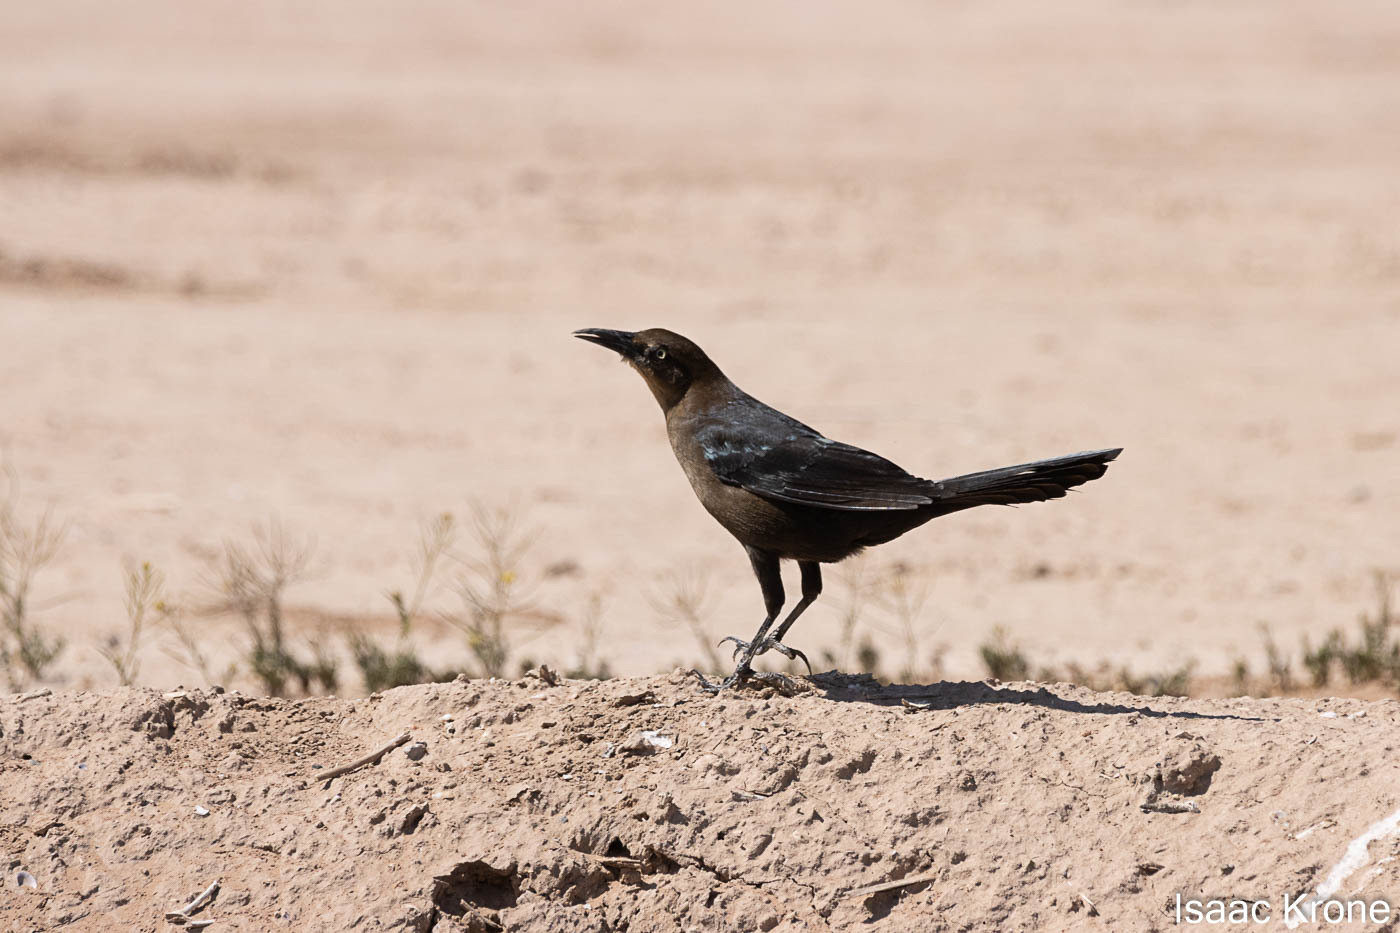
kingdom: Animalia
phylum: Chordata
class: Aves
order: Passeriformes
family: Icteridae
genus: Quiscalus
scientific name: Quiscalus mexicanus
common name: Great-tailed grackle
